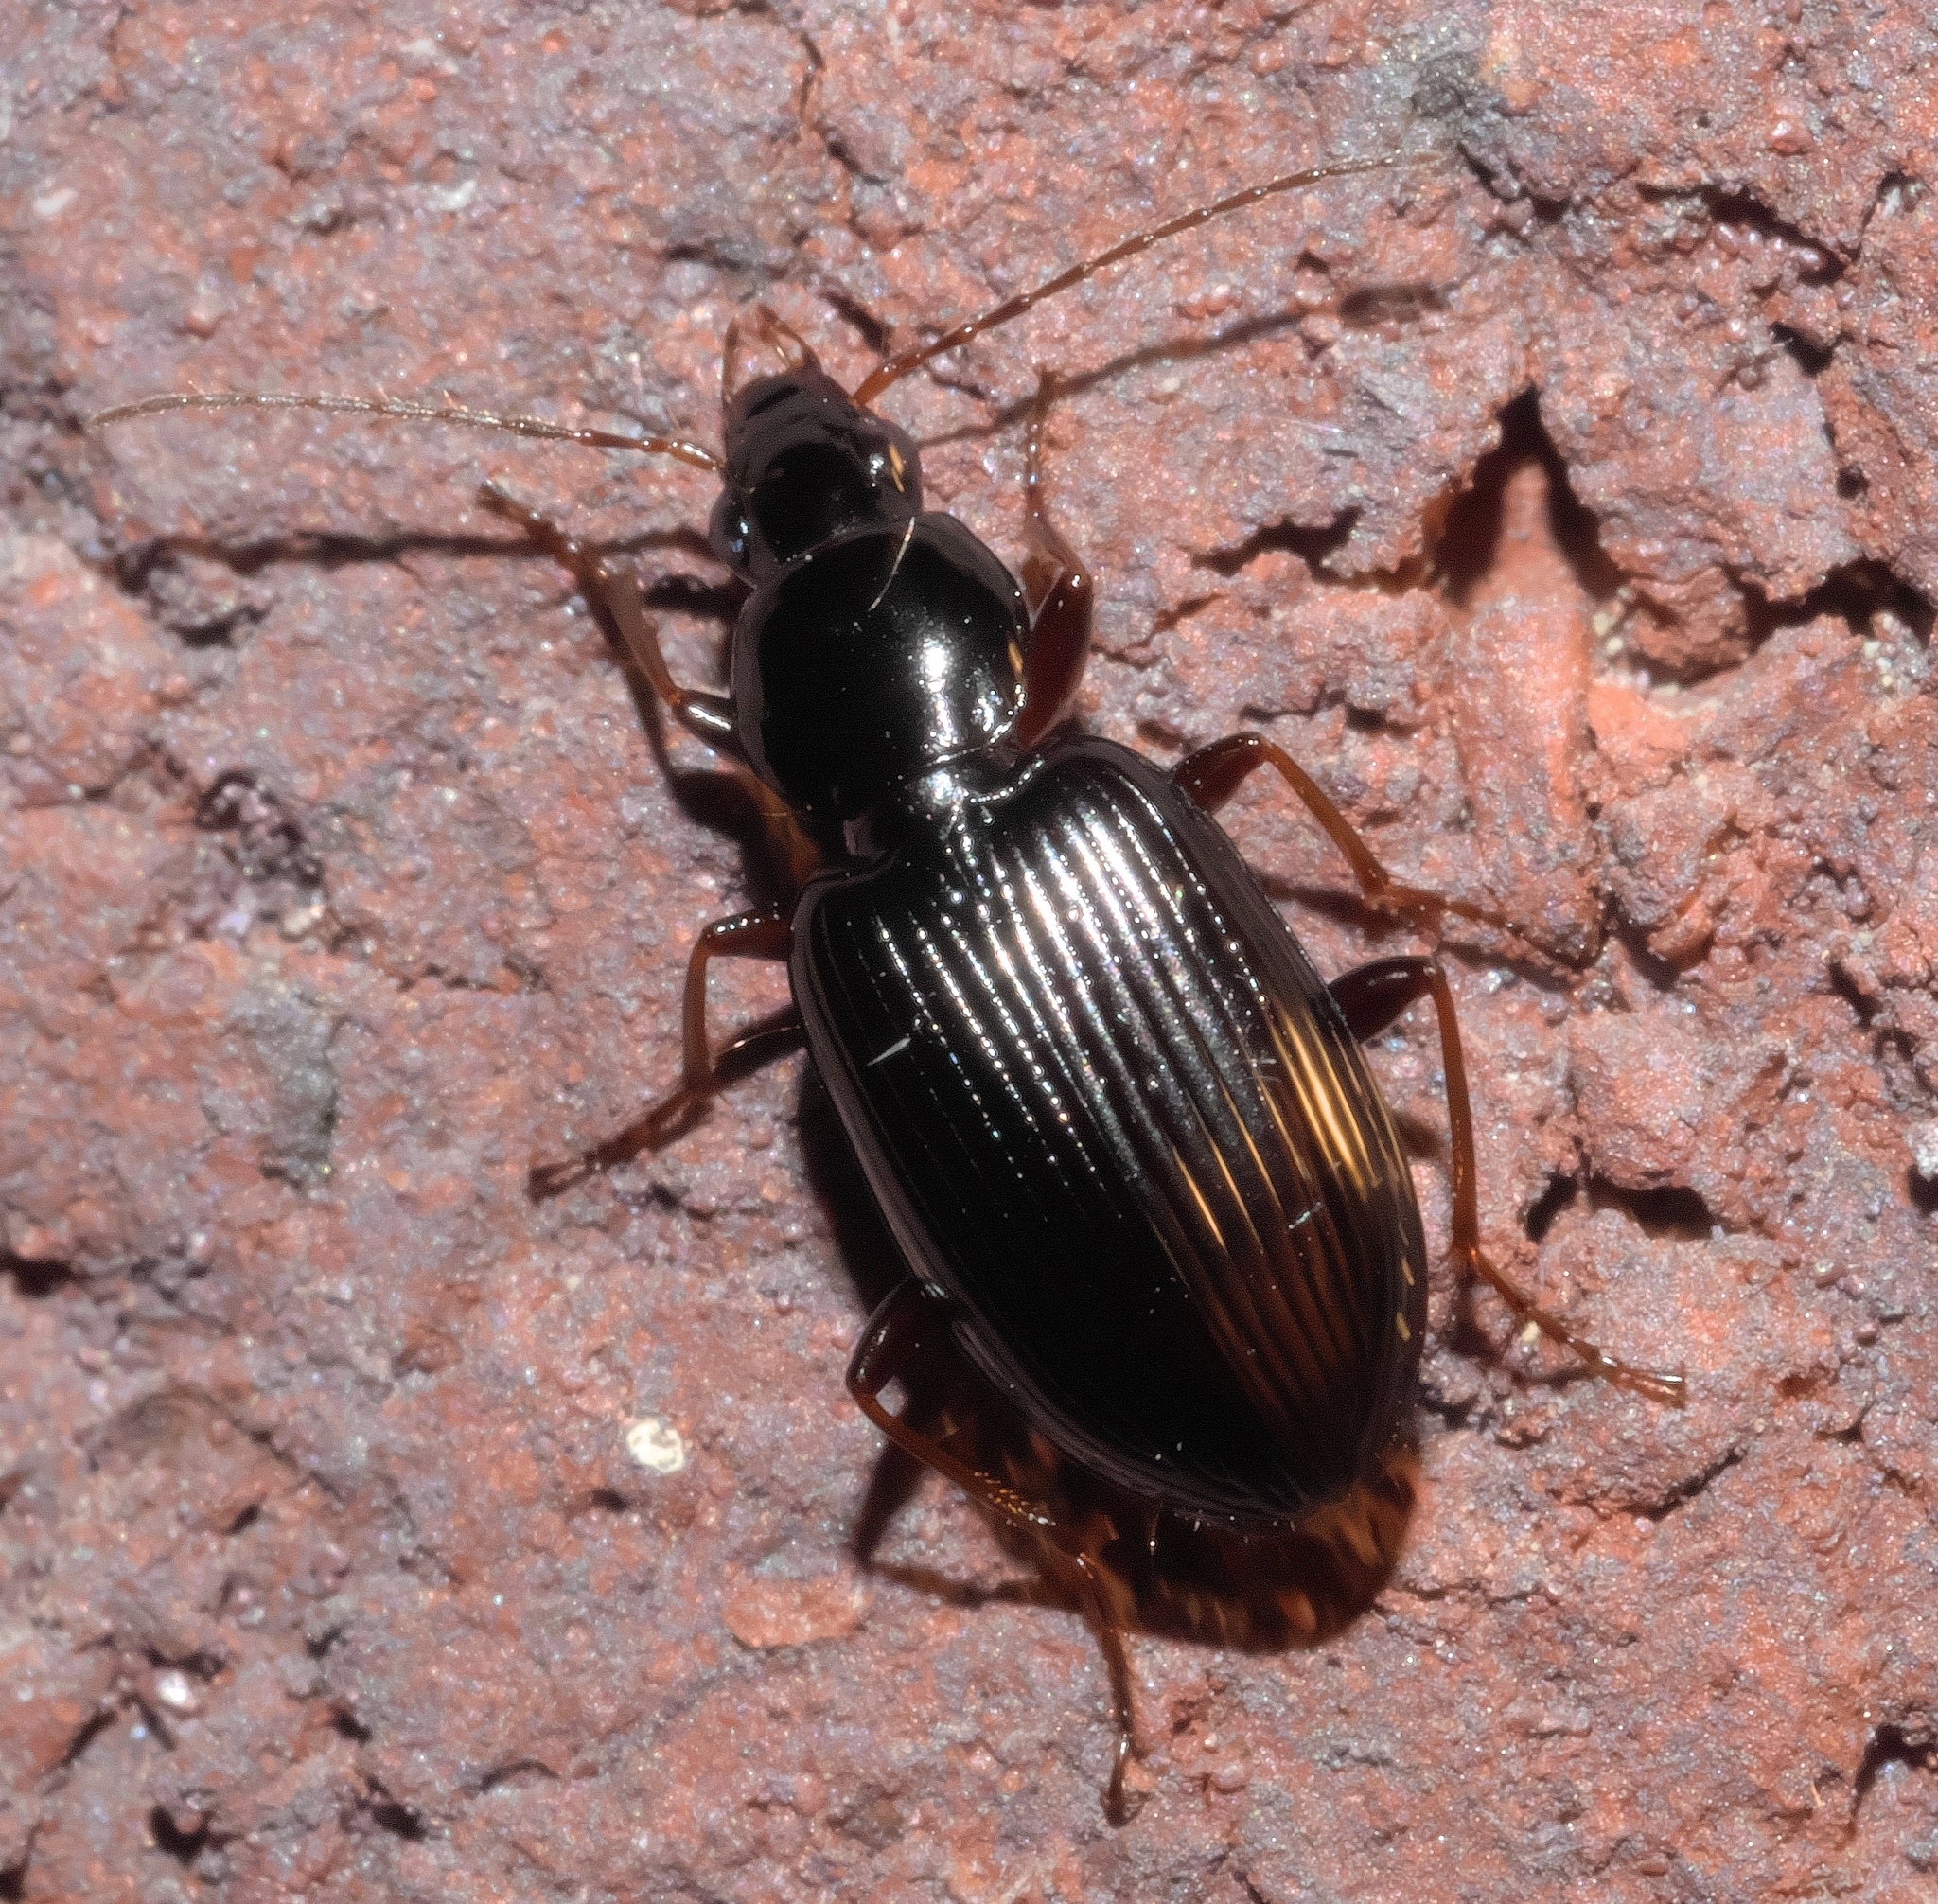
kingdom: Animalia
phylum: Arthropoda
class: Insecta
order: Coleoptera
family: Carabidae
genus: Agonum
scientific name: Agonum punctiforme
